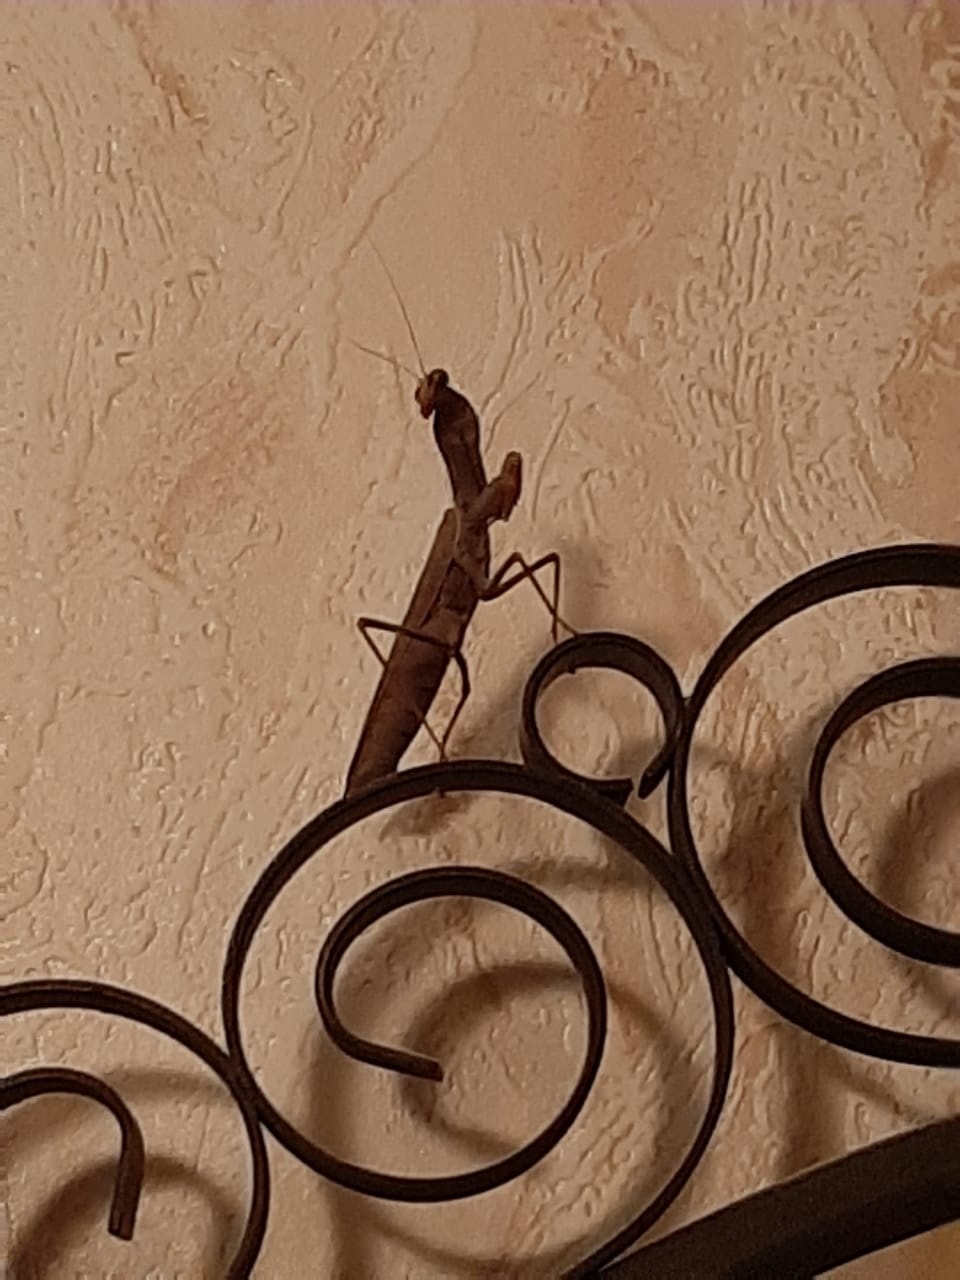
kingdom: Animalia
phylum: Arthropoda
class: Insecta
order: Mantodea
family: Mantidae
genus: Hierodula
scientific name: Hierodula transcaucasica
